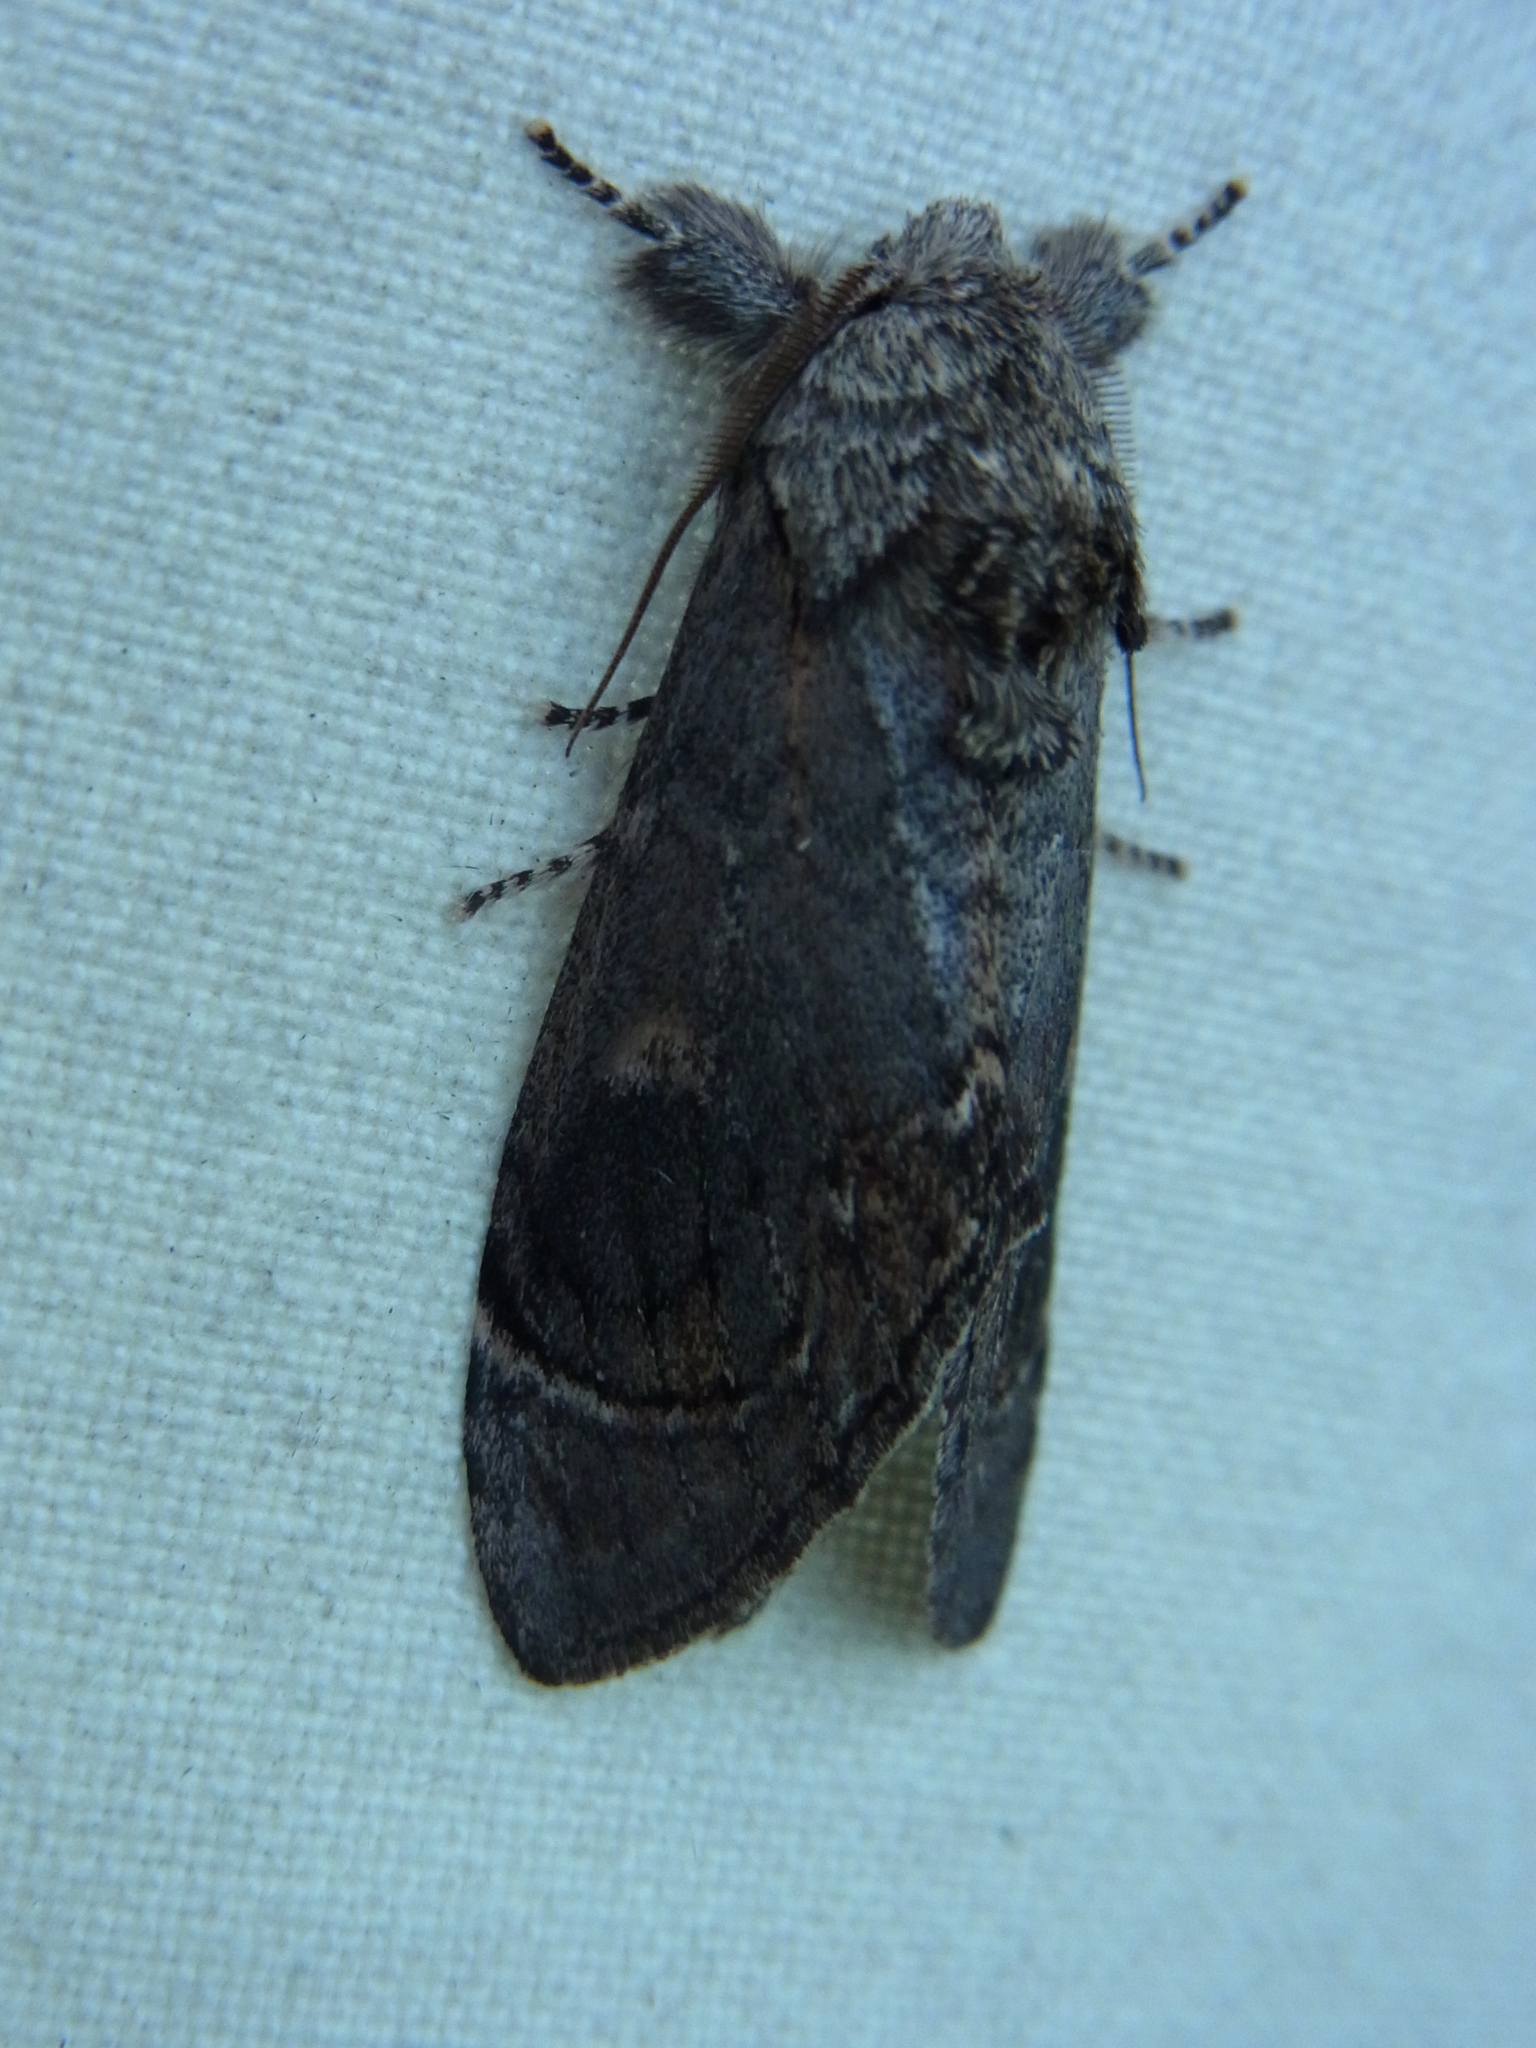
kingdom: Animalia
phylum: Arthropoda
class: Insecta
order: Lepidoptera
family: Notodontidae
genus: Fentonia
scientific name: Fentonia ocypete
